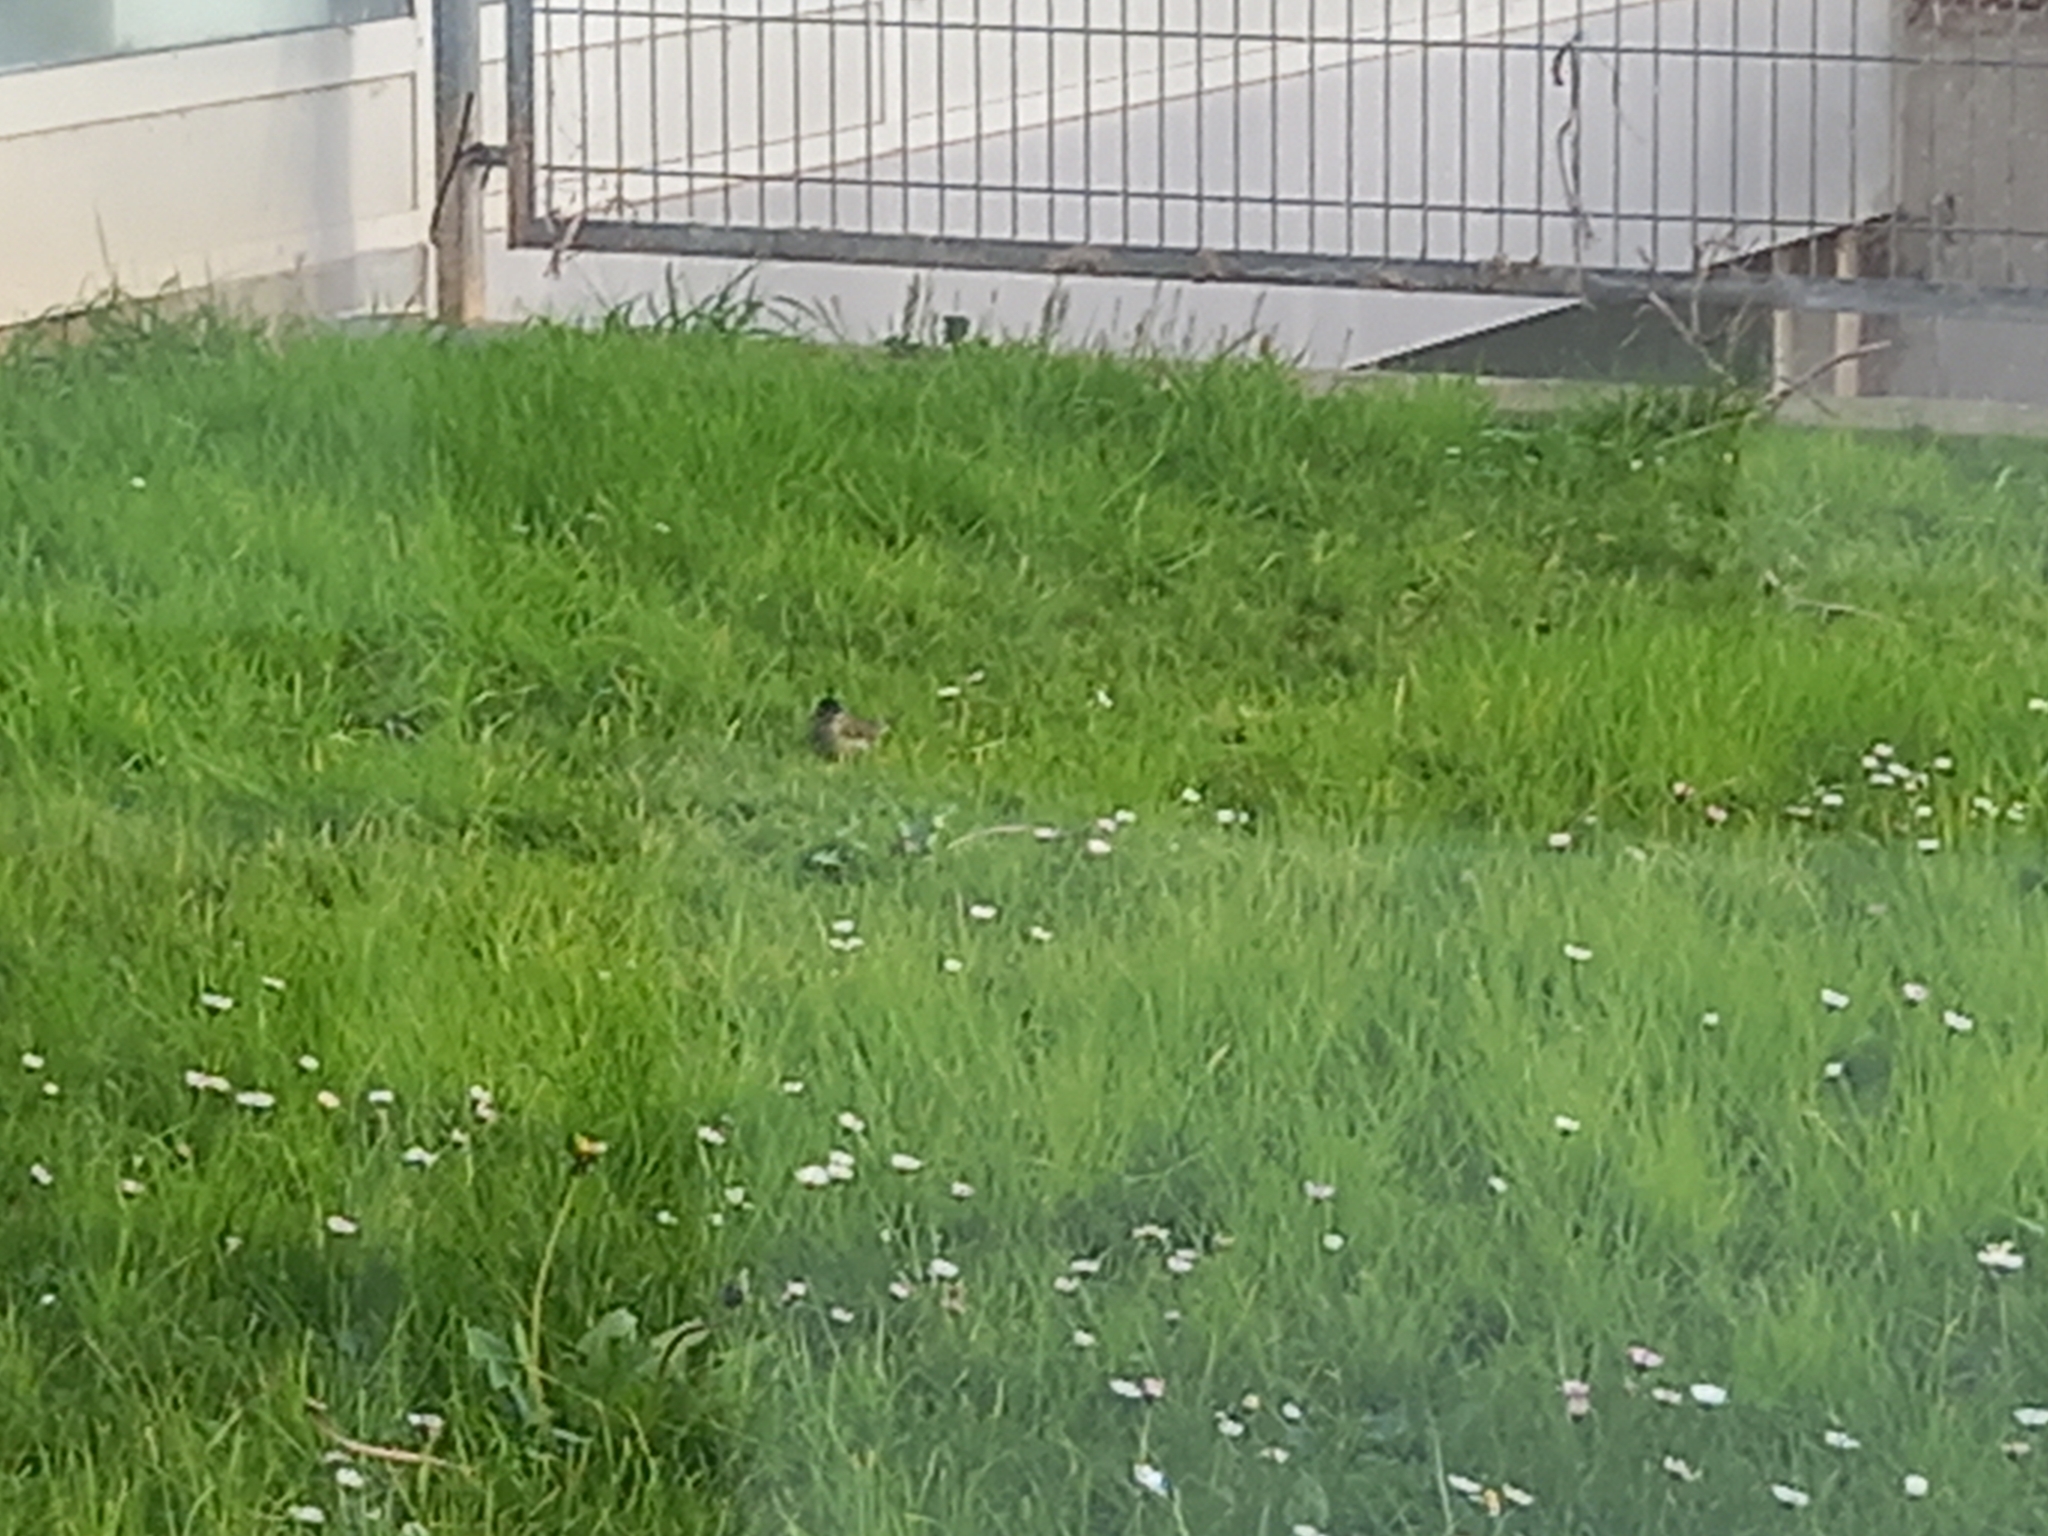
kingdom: Animalia
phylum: Chordata
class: Aves
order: Passeriformes
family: Sylviidae
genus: Sylvia
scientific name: Sylvia atricapilla
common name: Eurasian blackcap
